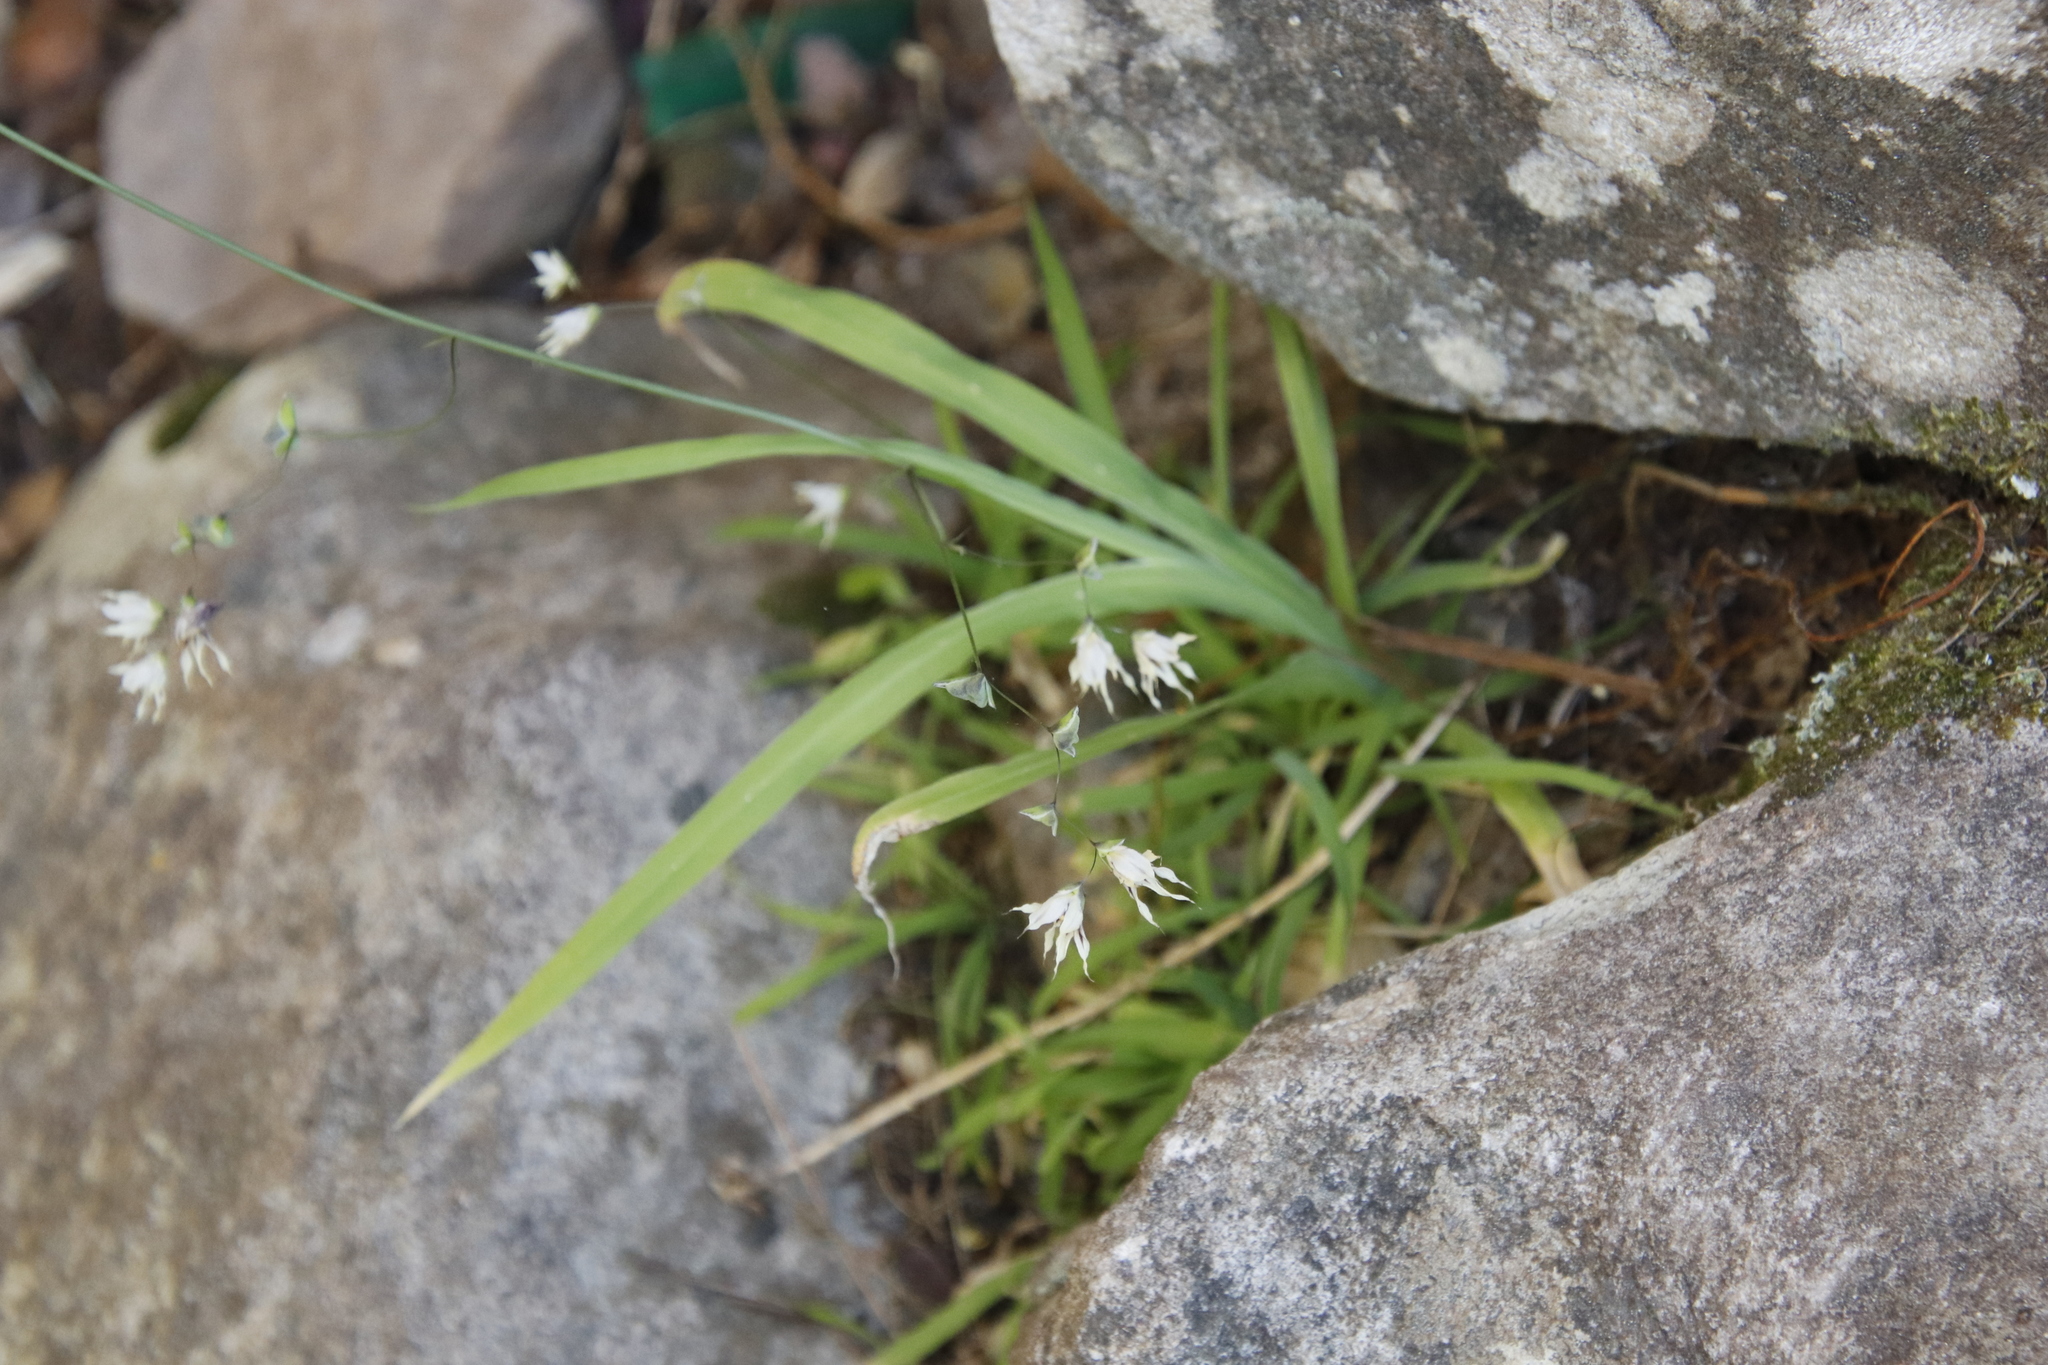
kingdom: Plantae
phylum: Tracheophyta
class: Liliopsida
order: Asparagales
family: Iridaceae
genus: Melasphaerula
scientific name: Melasphaerula graminea
